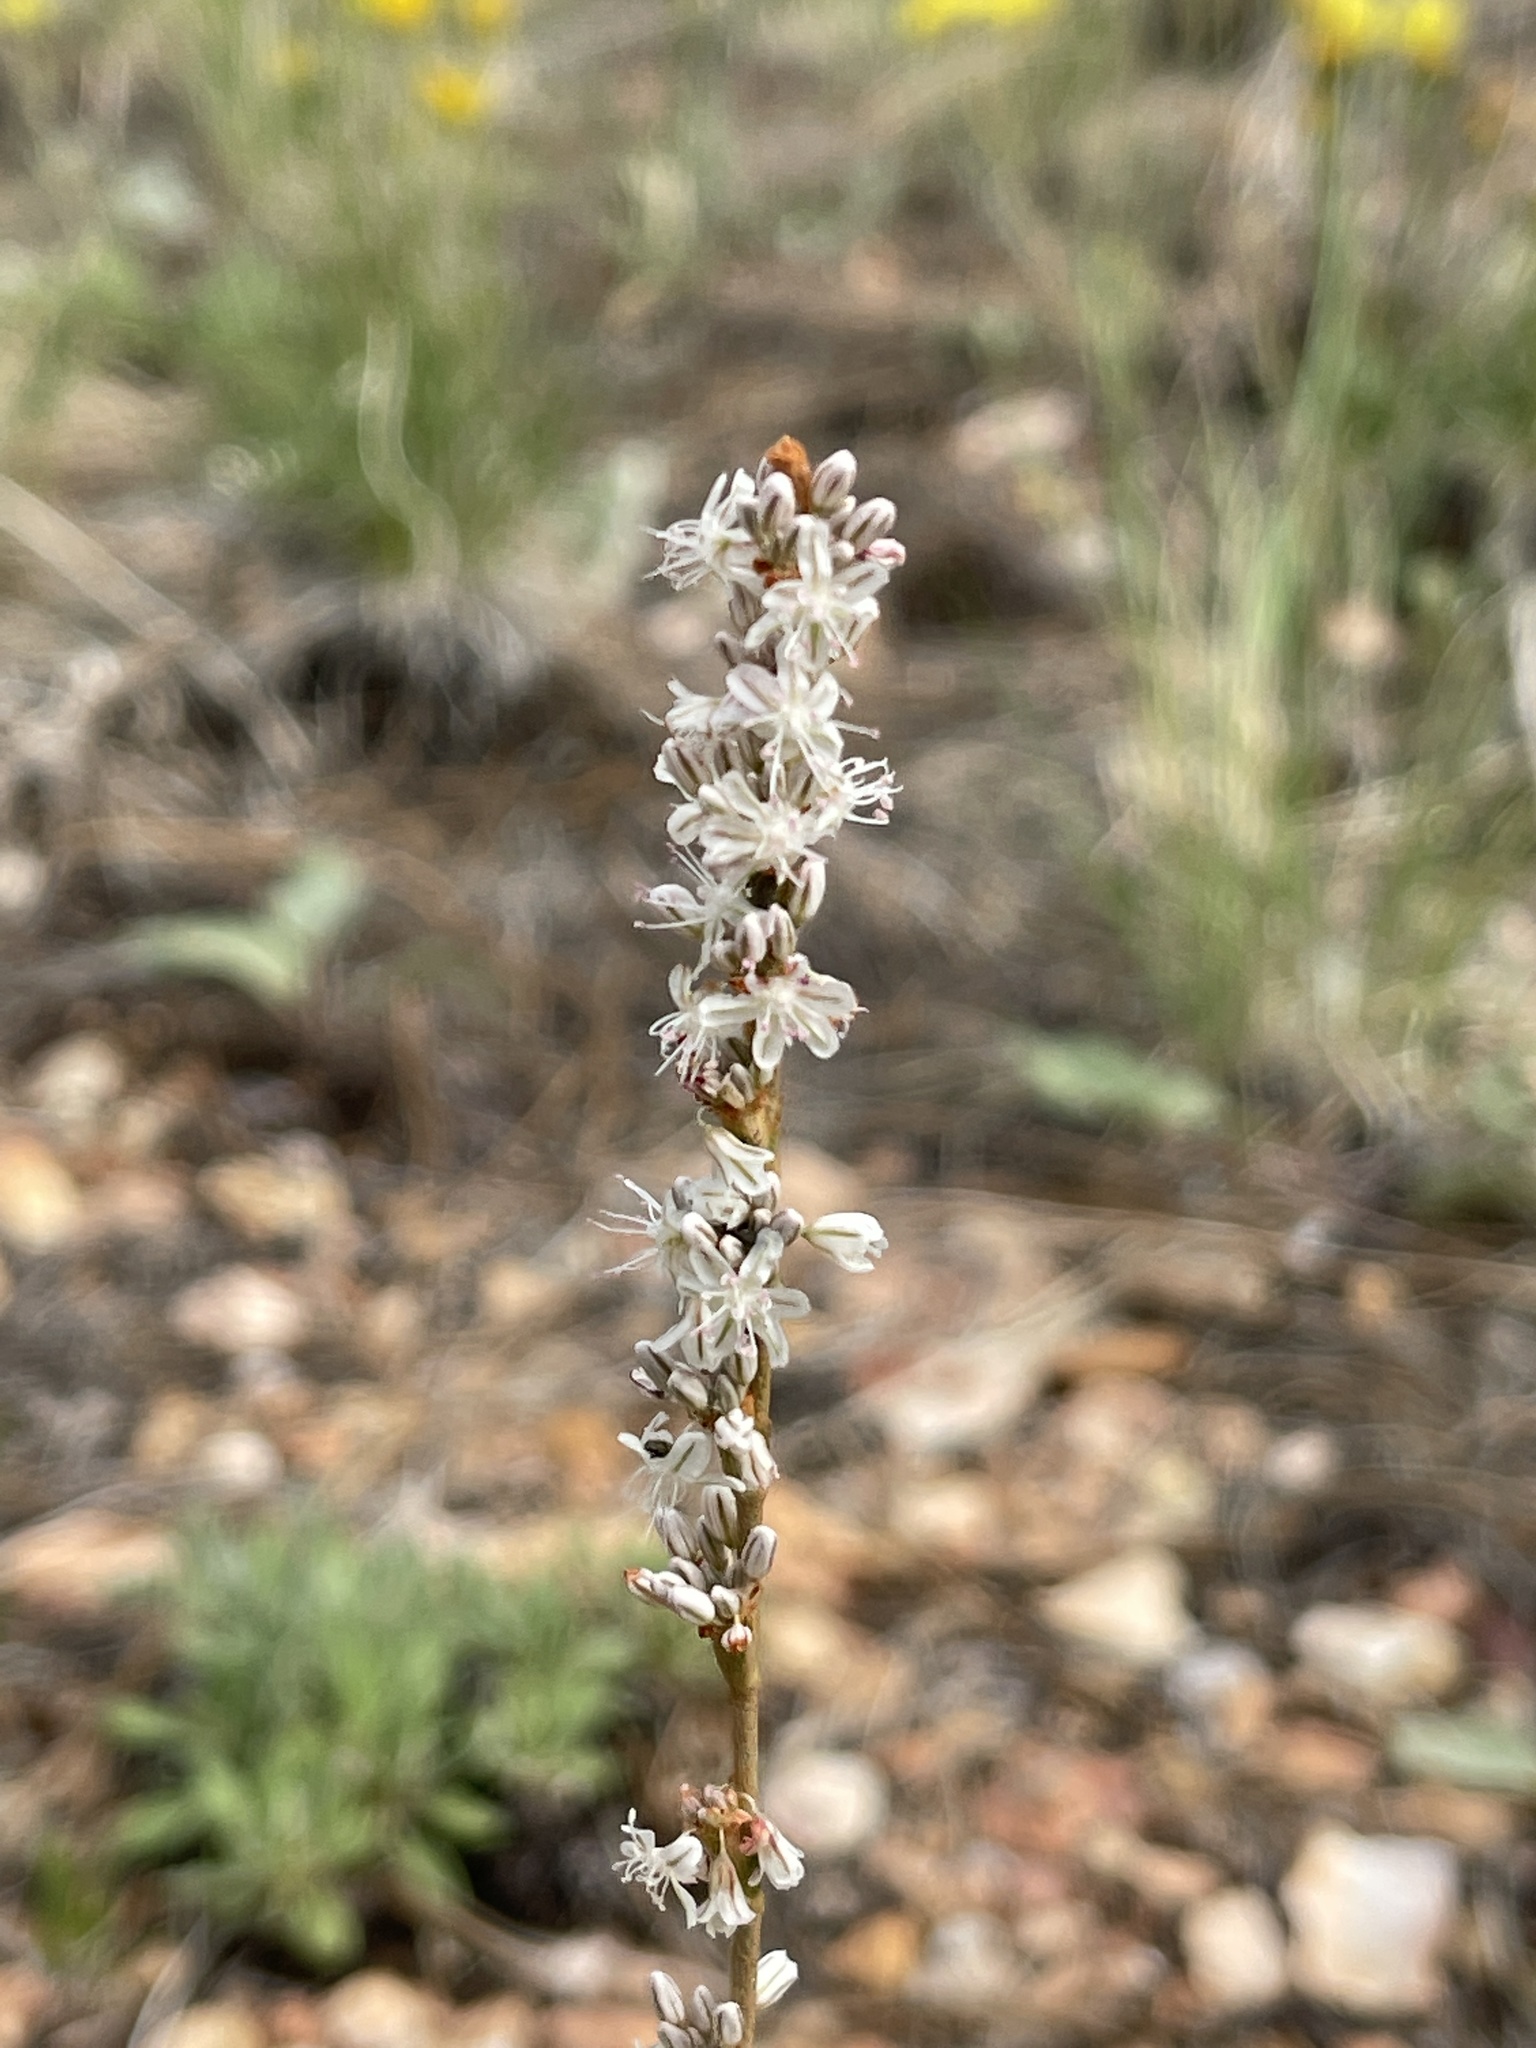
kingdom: Plantae
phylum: Tracheophyta
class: Magnoliopsida
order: Caryophyllales
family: Polygonaceae
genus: Eriogonum
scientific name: Eriogonum racemosum
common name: Redroot wild buckwheat
